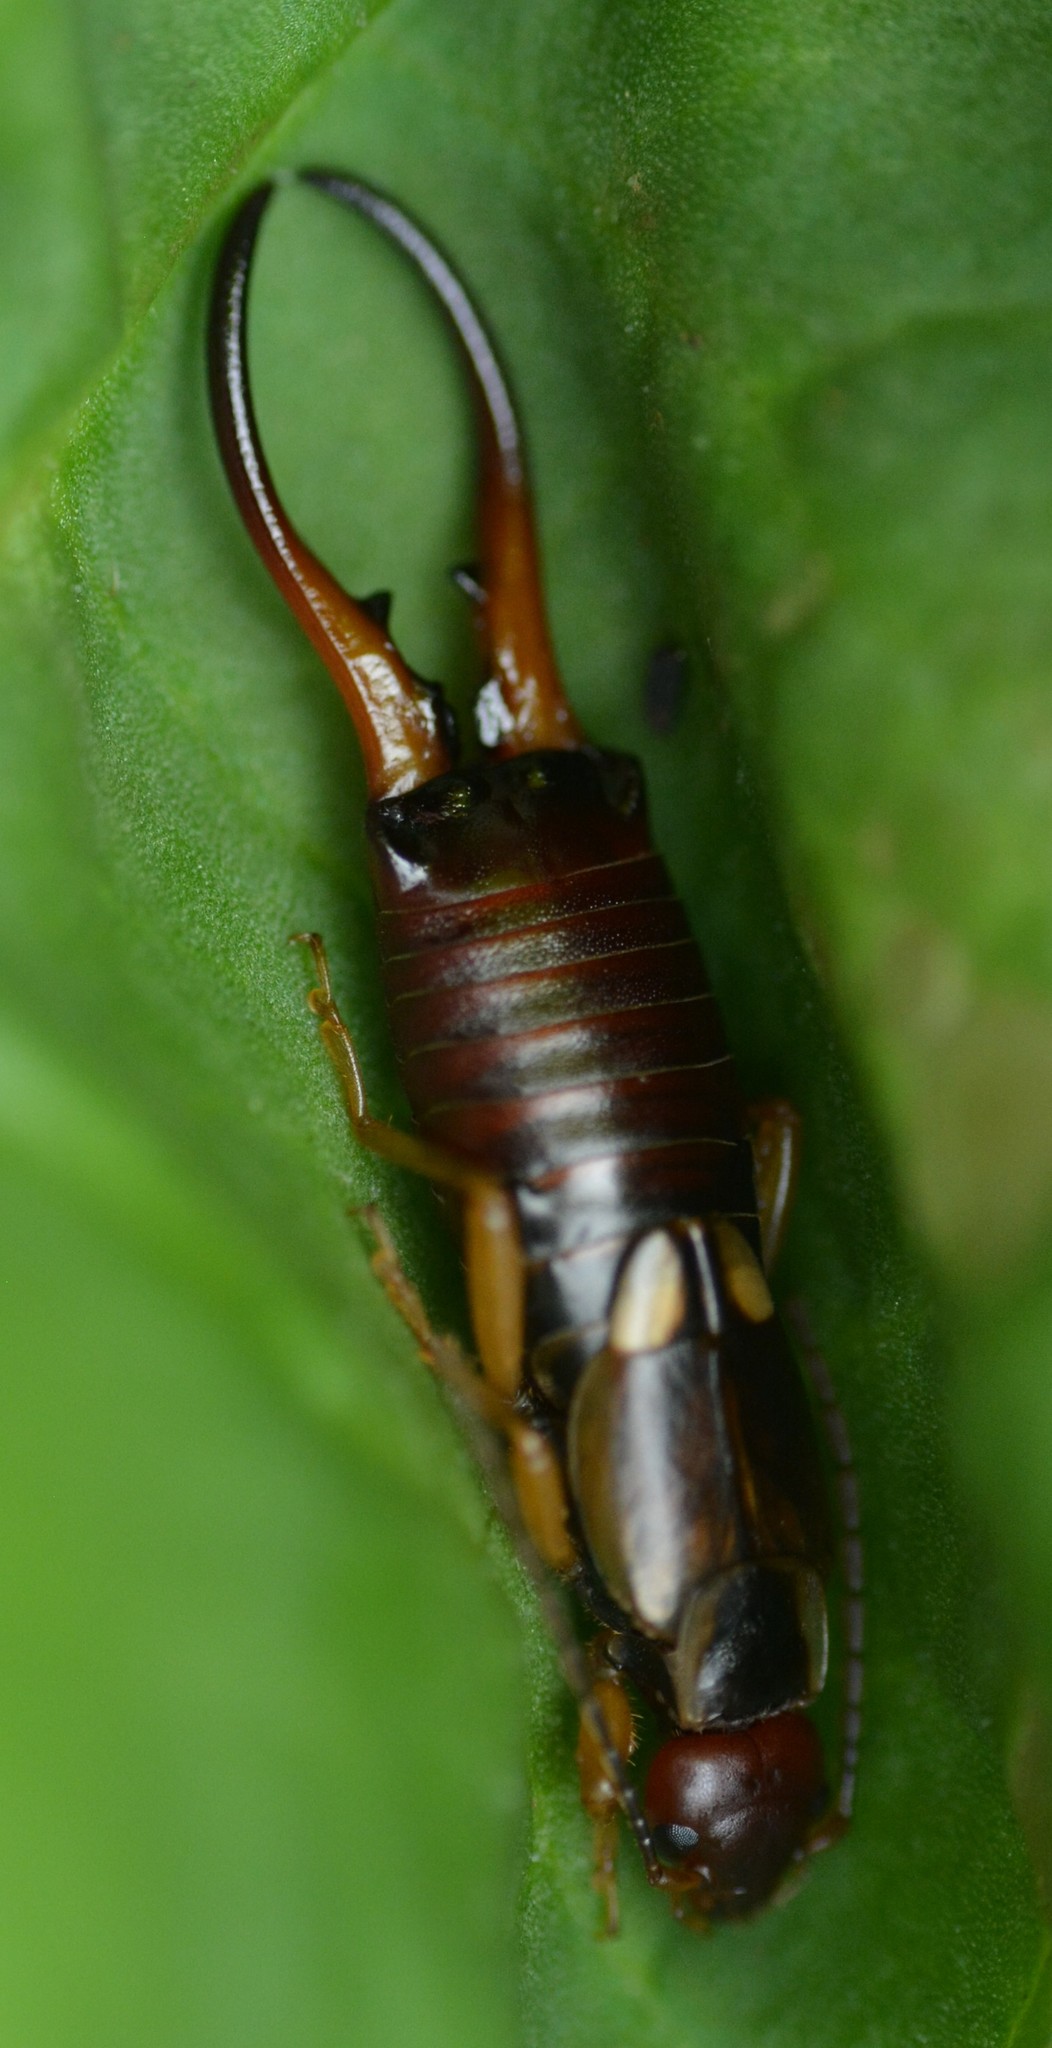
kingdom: Animalia
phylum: Arthropoda
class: Insecta
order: Dermaptera
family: Forficulidae
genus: Forficula
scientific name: Forficula
